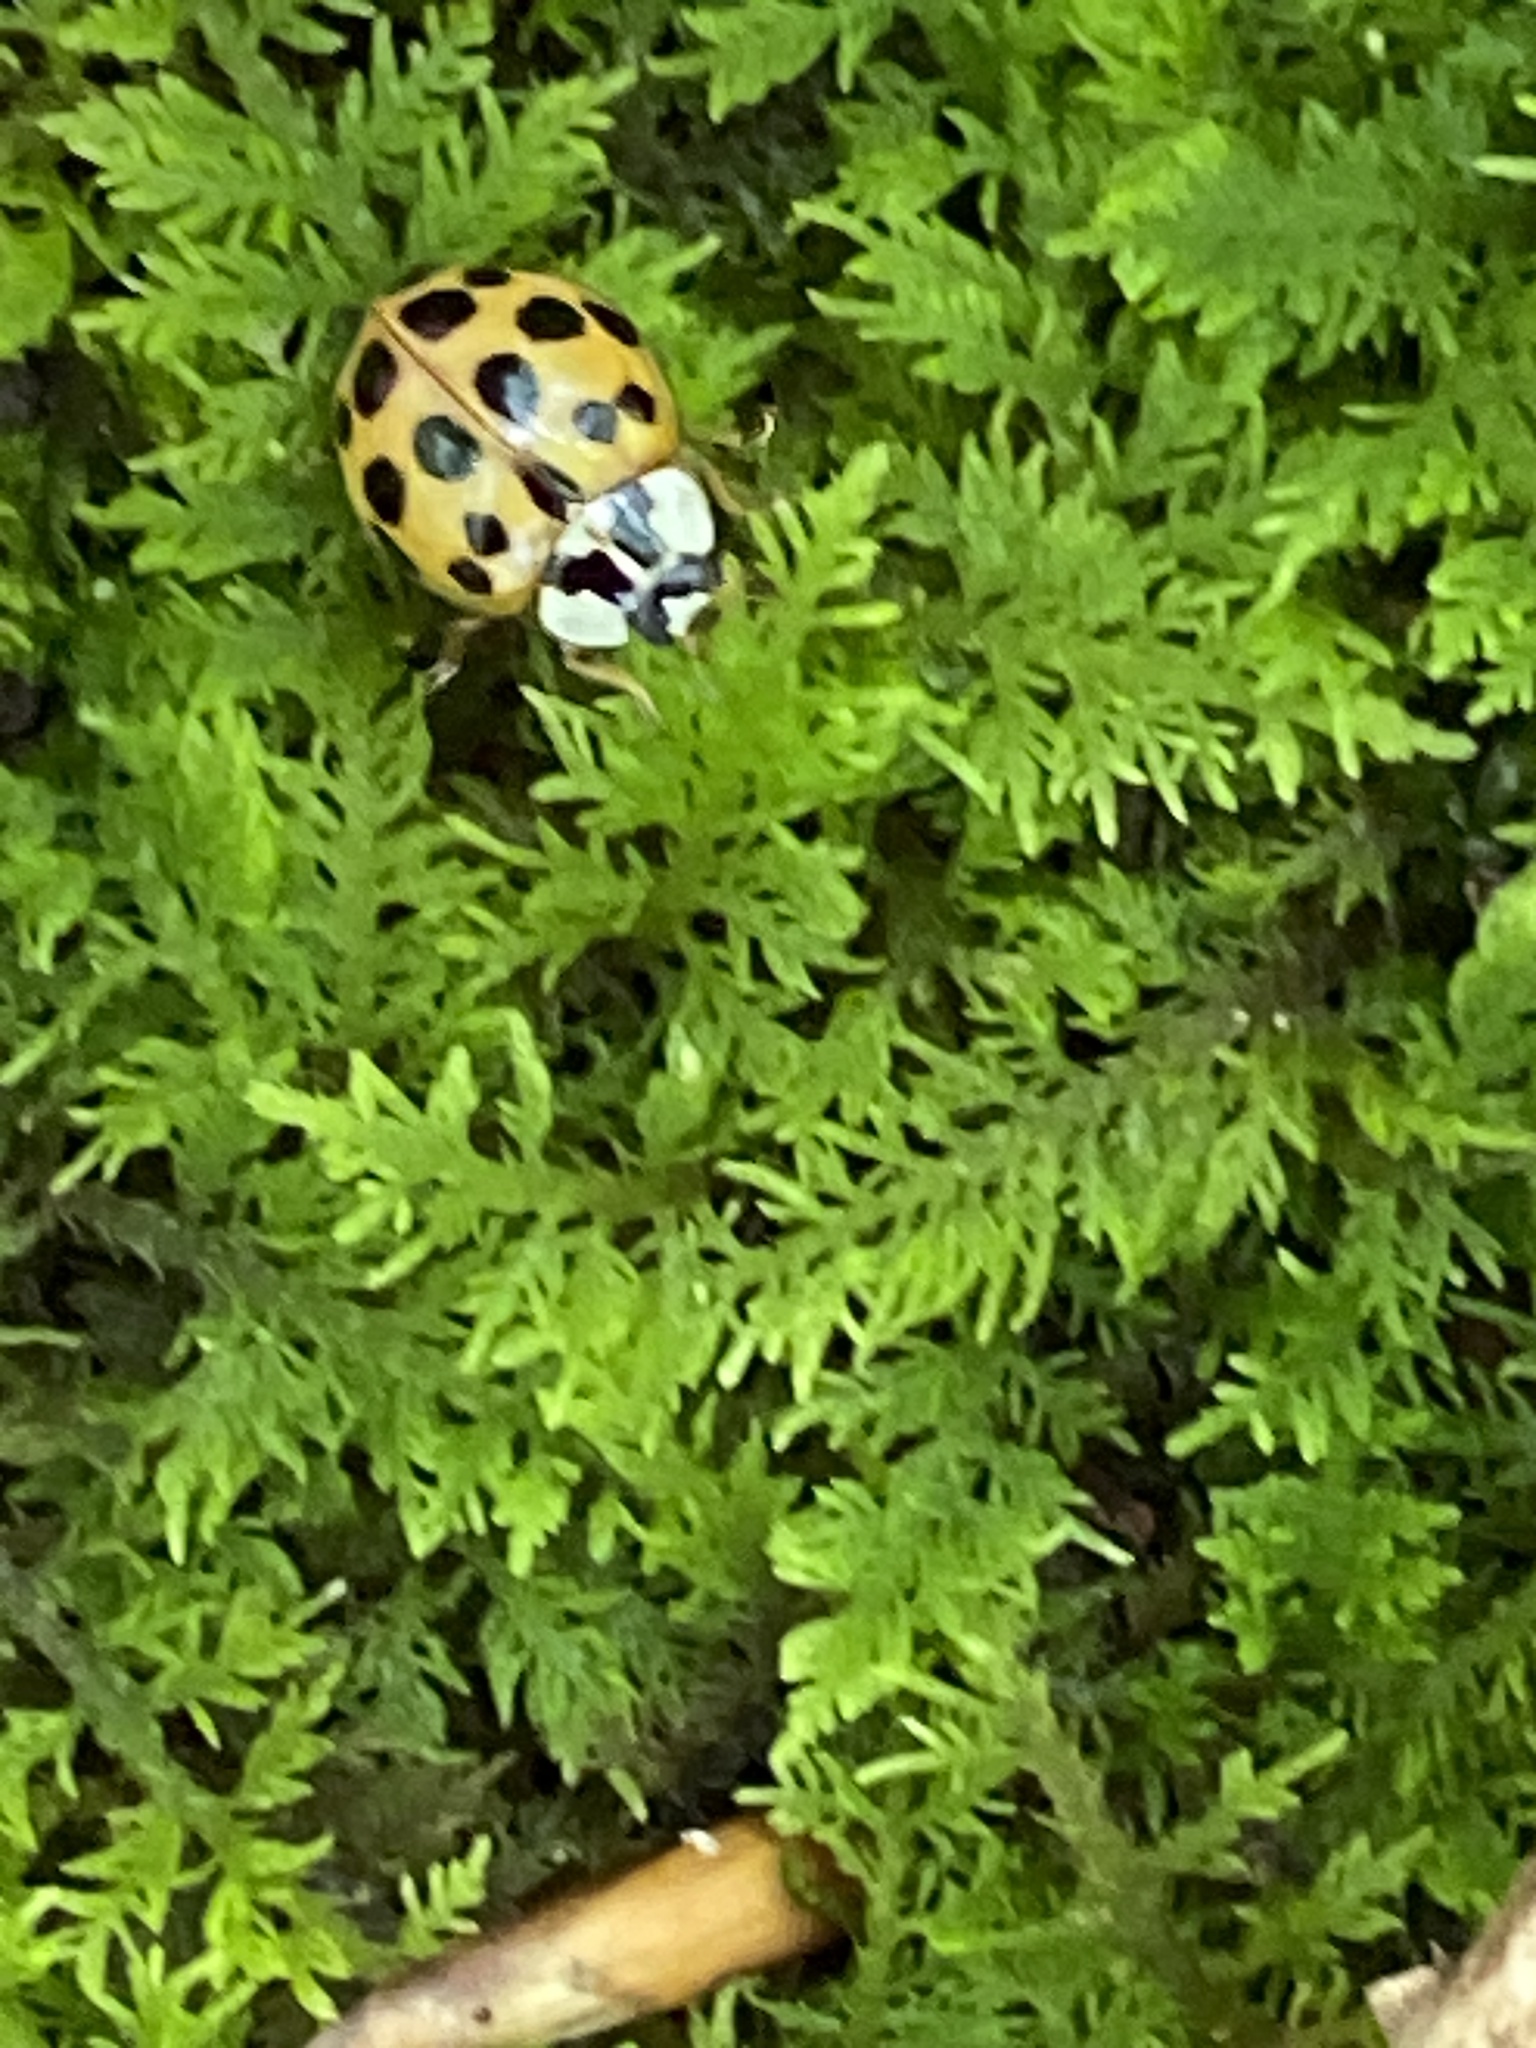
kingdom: Animalia
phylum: Arthropoda
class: Insecta
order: Coleoptera
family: Coccinellidae
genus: Harmonia
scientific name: Harmonia axyridis
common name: Harlequin ladybird
